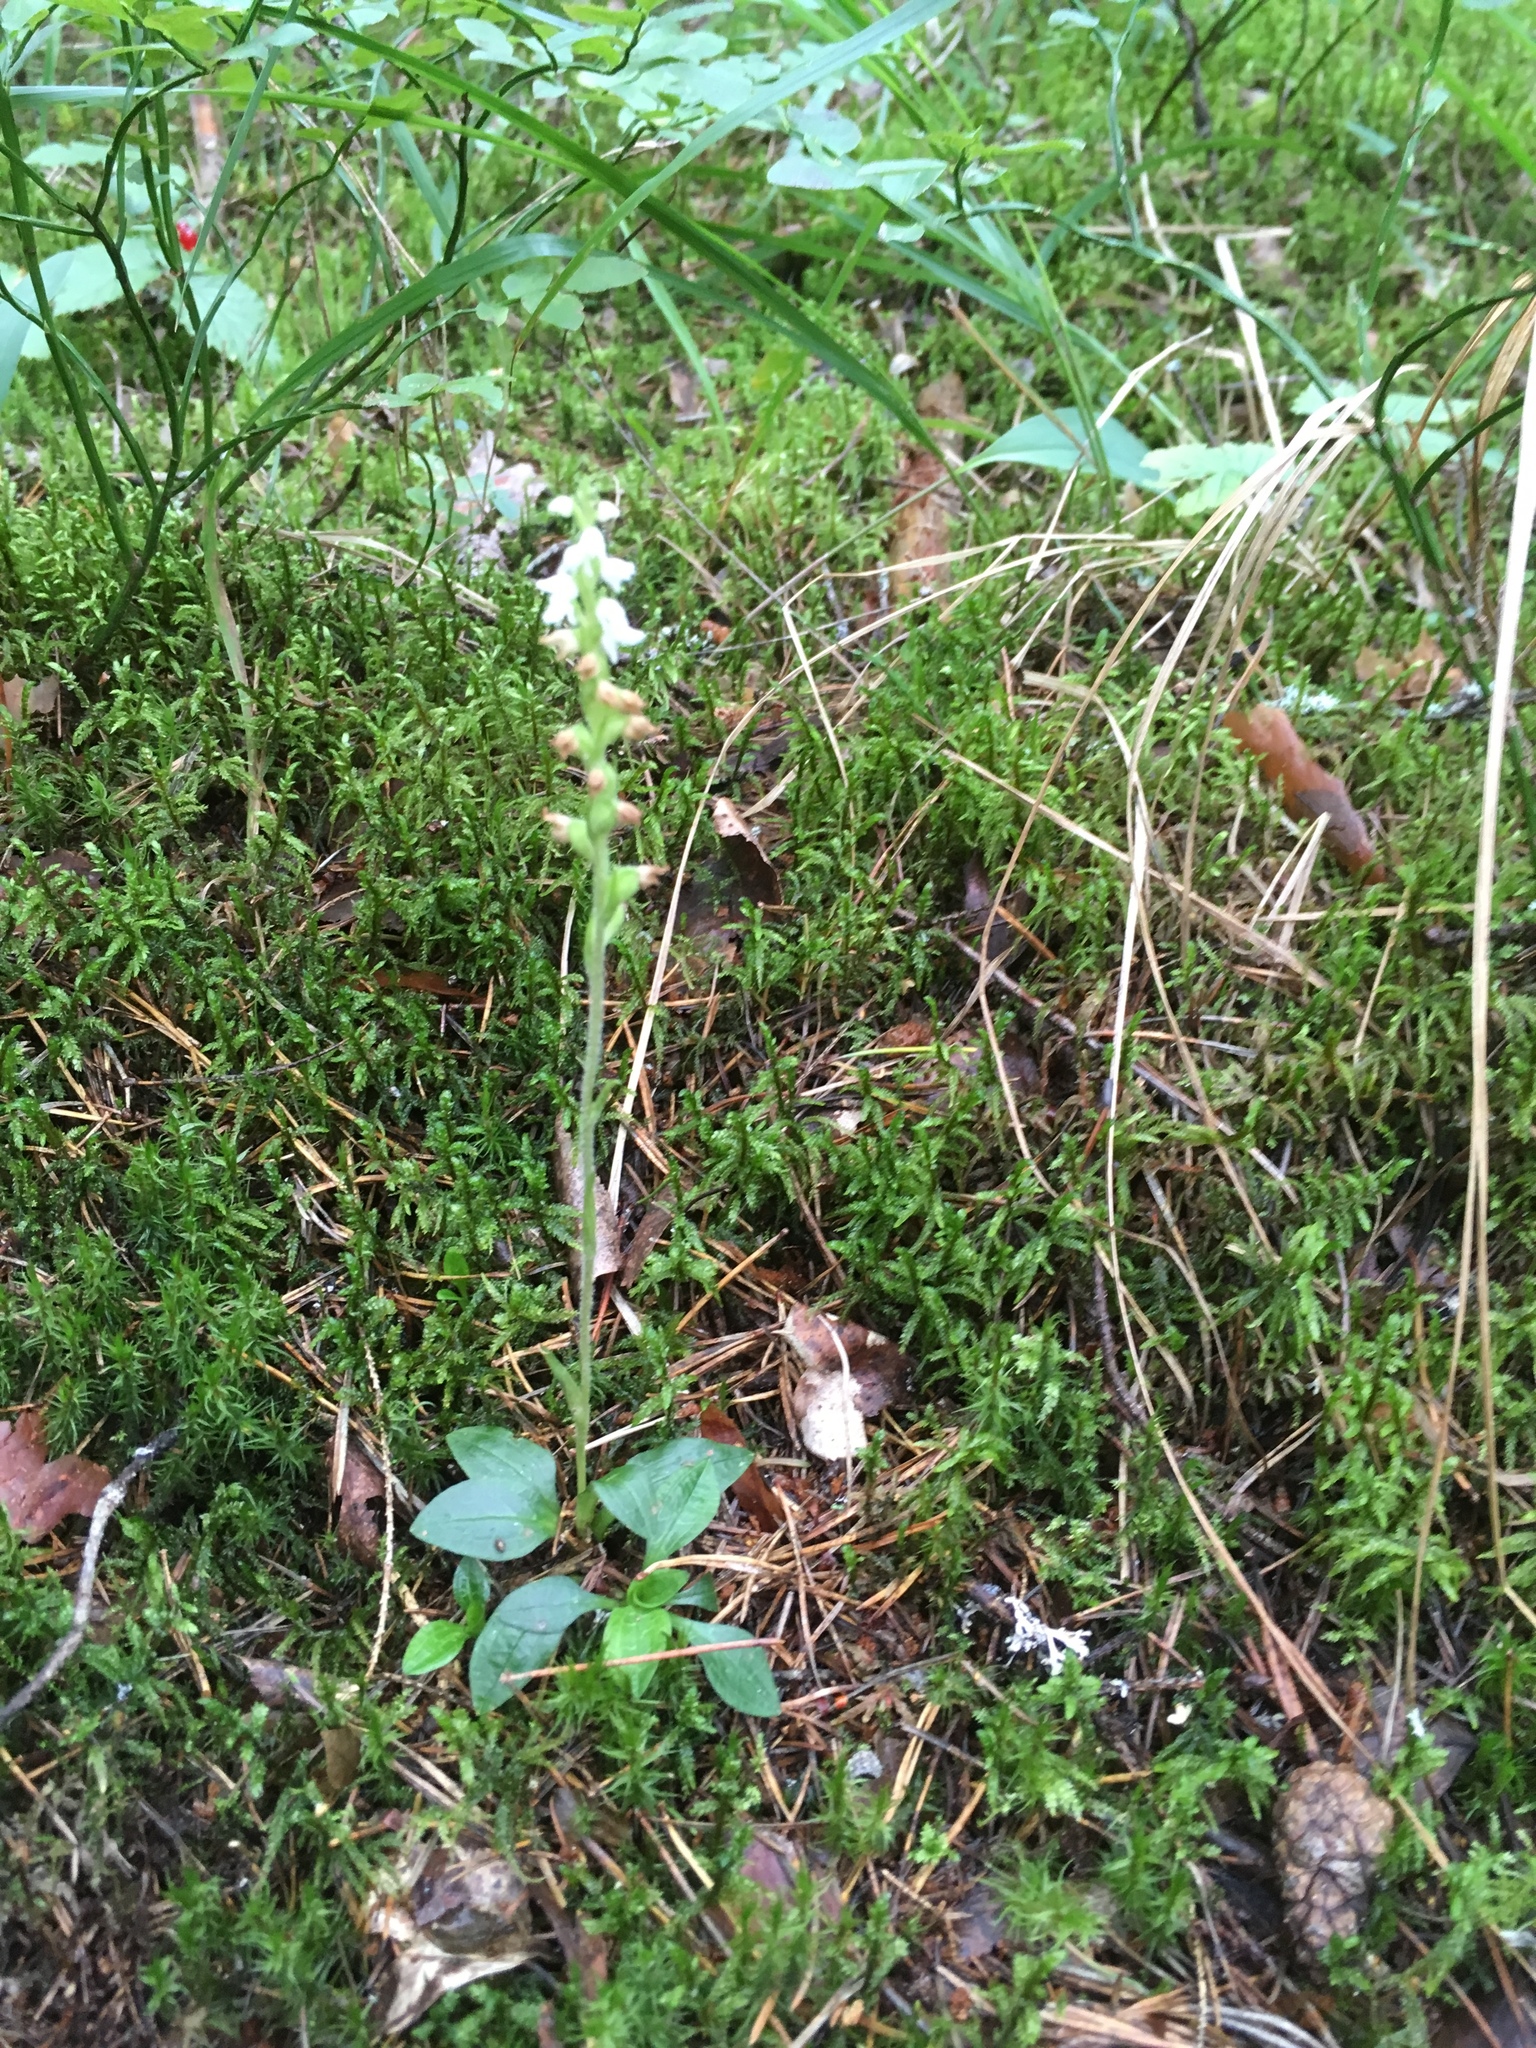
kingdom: Plantae
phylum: Tracheophyta
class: Liliopsida
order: Asparagales
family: Orchidaceae
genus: Goodyera
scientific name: Goodyera repens
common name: Creeping lady's-tresses
